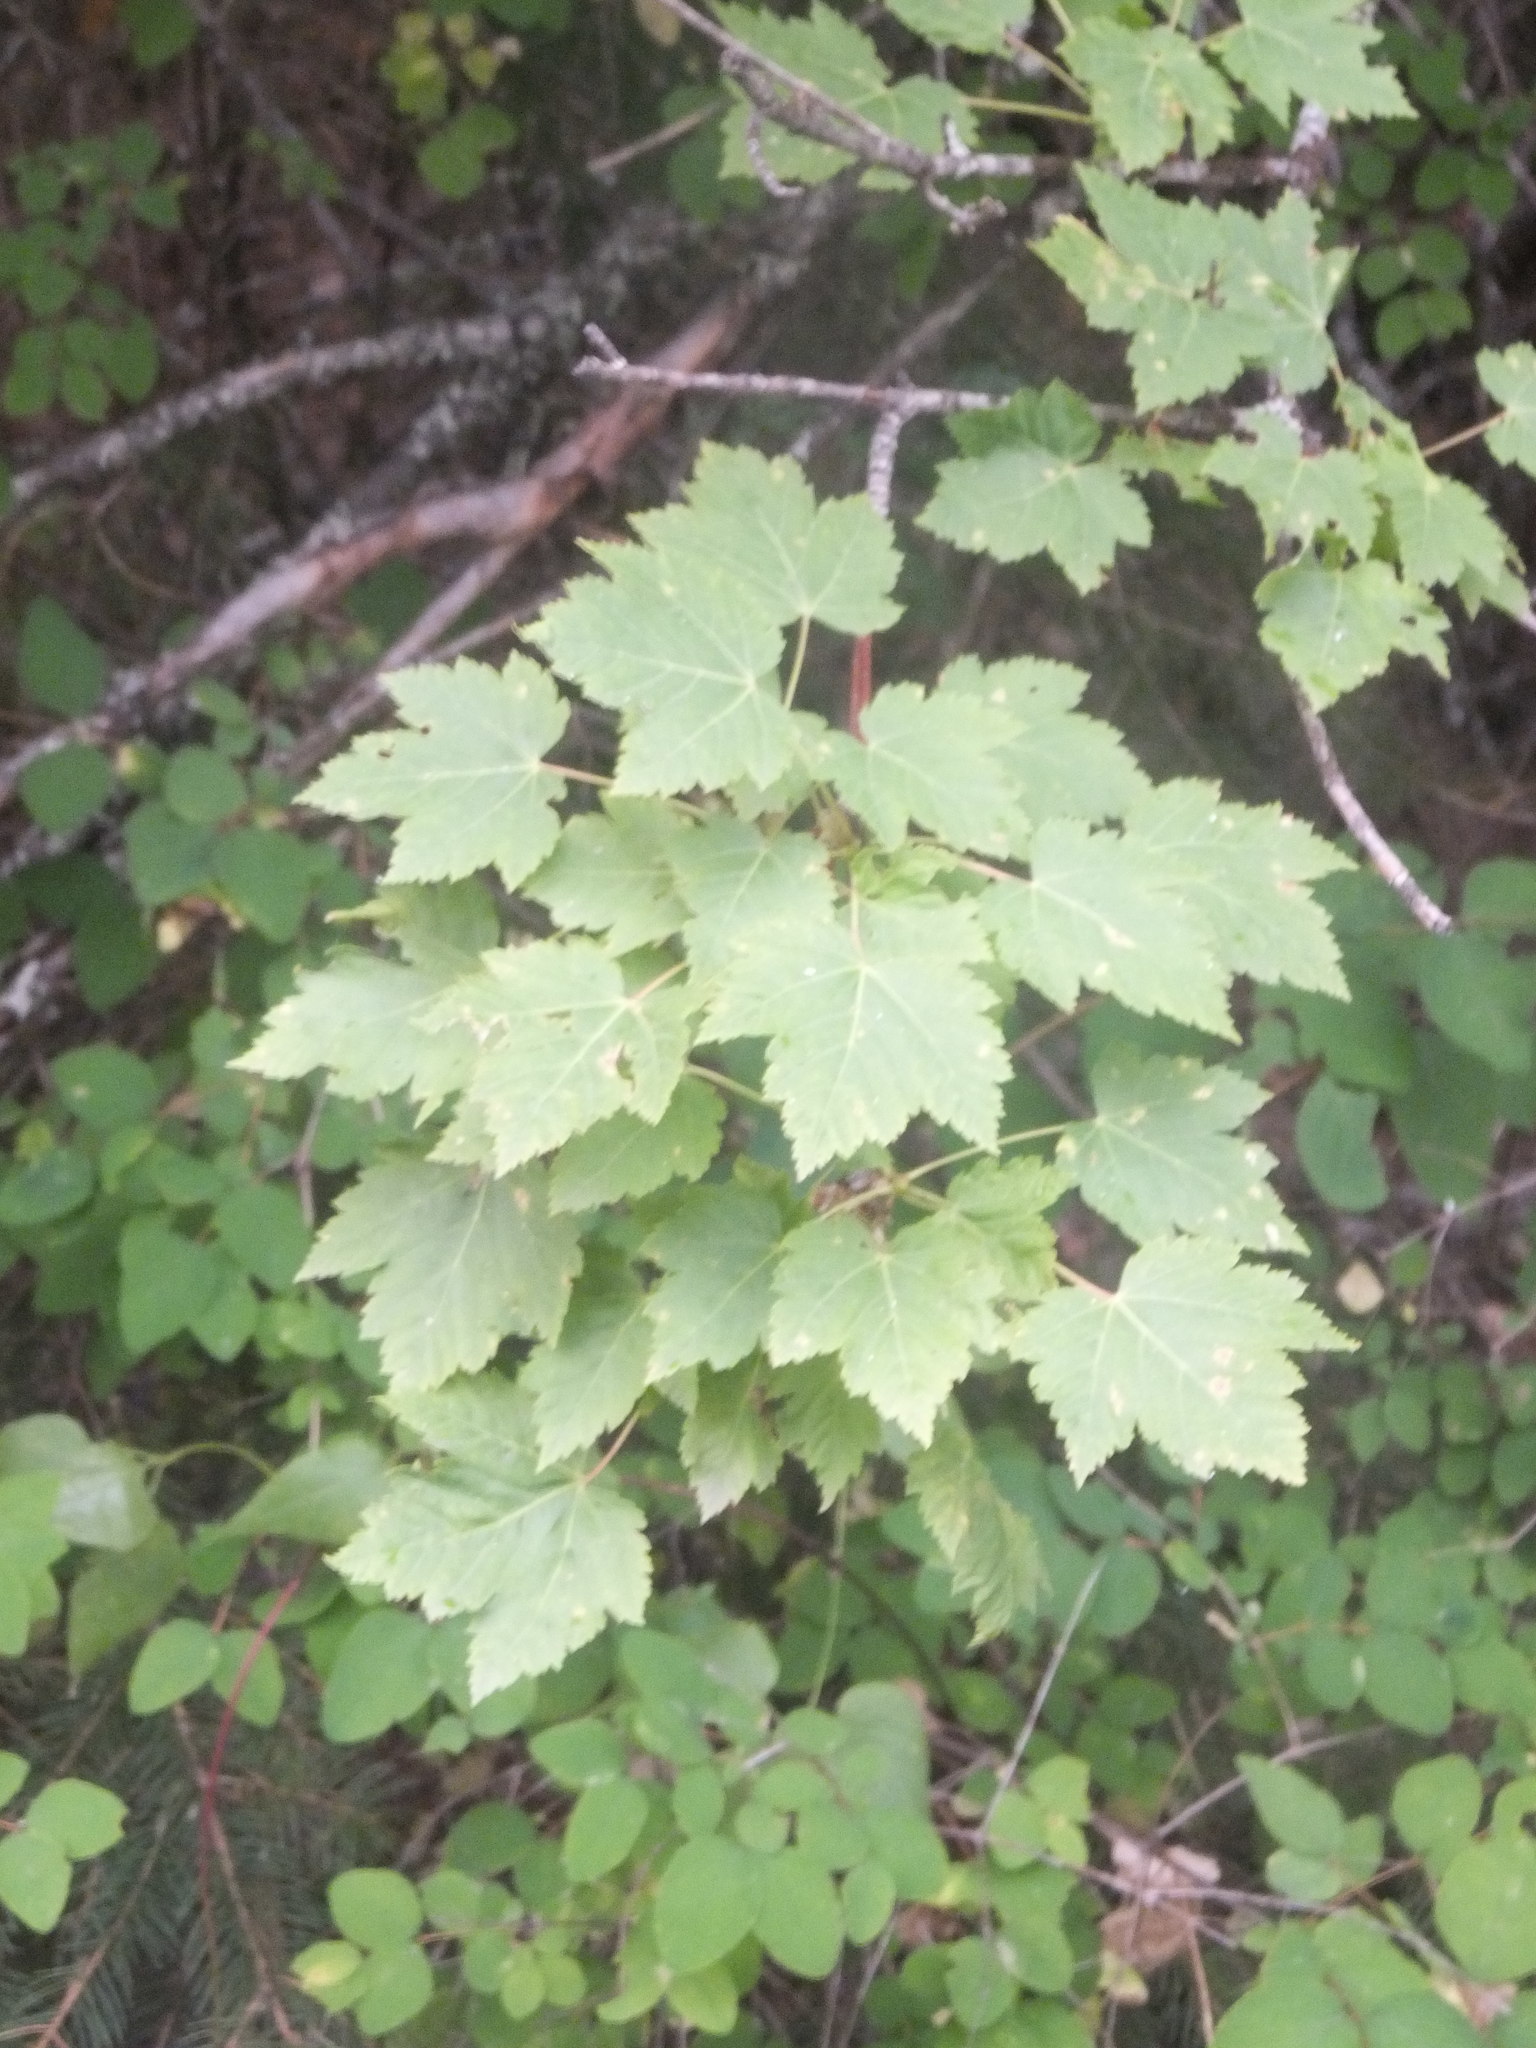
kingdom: Plantae
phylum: Tracheophyta
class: Magnoliopsida
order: Sapindales
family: Sapindaceae
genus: Acer
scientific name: Acer glabrum
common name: Rocky mountain maple
